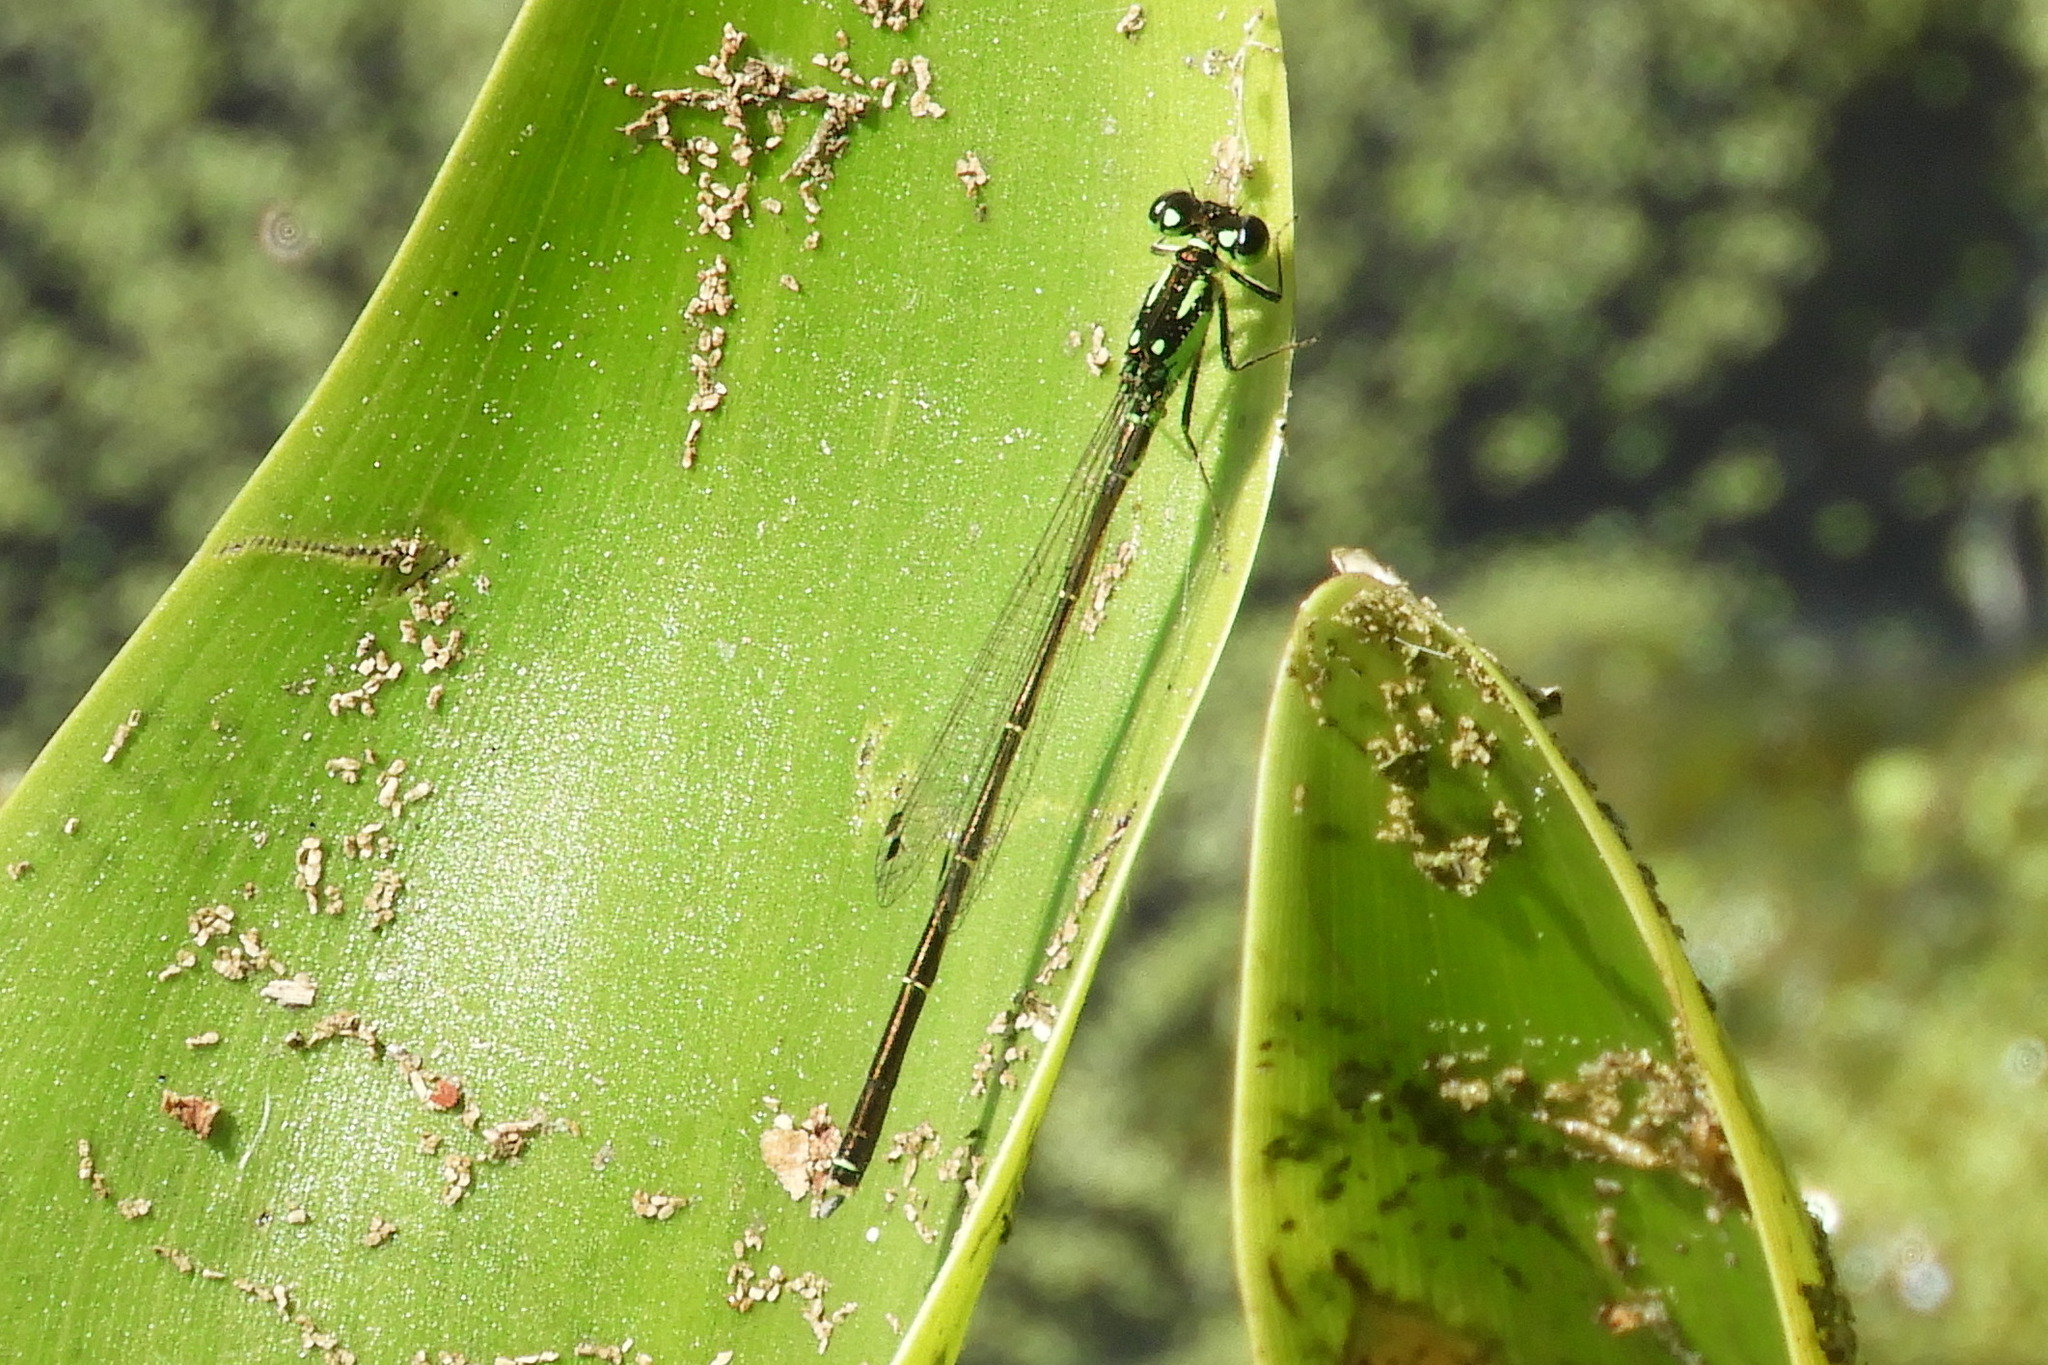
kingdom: Animalia
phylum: Arthropoda
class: Insecta
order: Odonata
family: Coenagrionidae
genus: Ischnura
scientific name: Ischnura posita
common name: Fragile forktail
